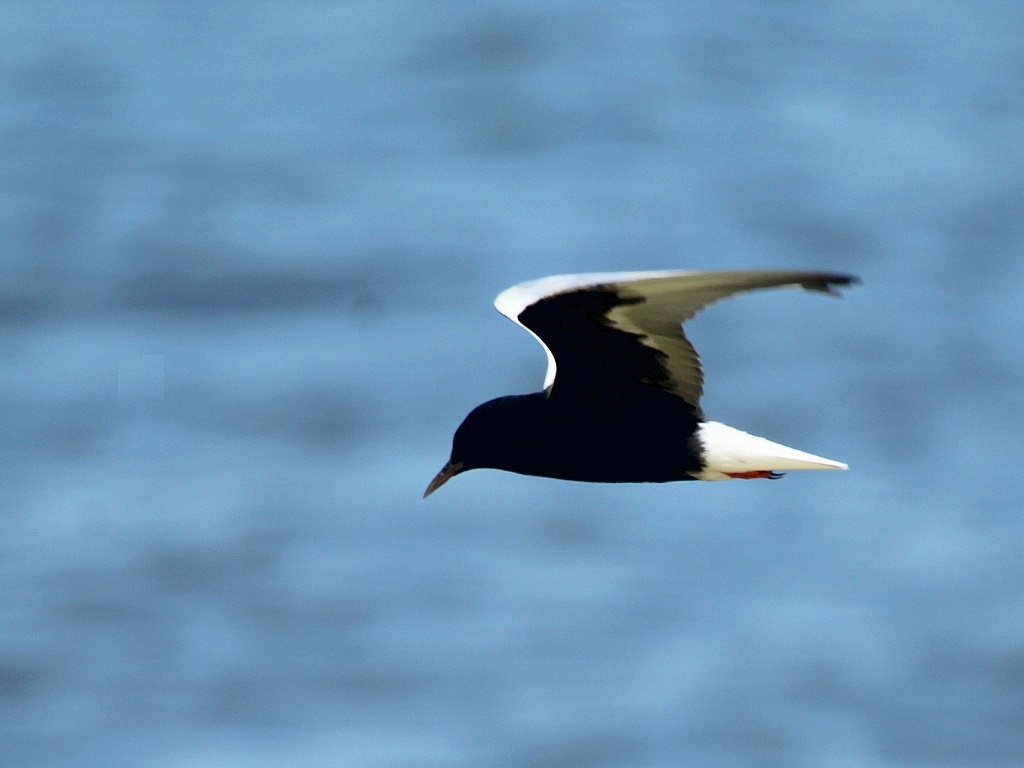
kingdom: Animalia
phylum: Chordata
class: Aves
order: Charadriiformes
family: Laridae
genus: Chlidonias
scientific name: Chlidonias leucopterus
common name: White-winged tern
